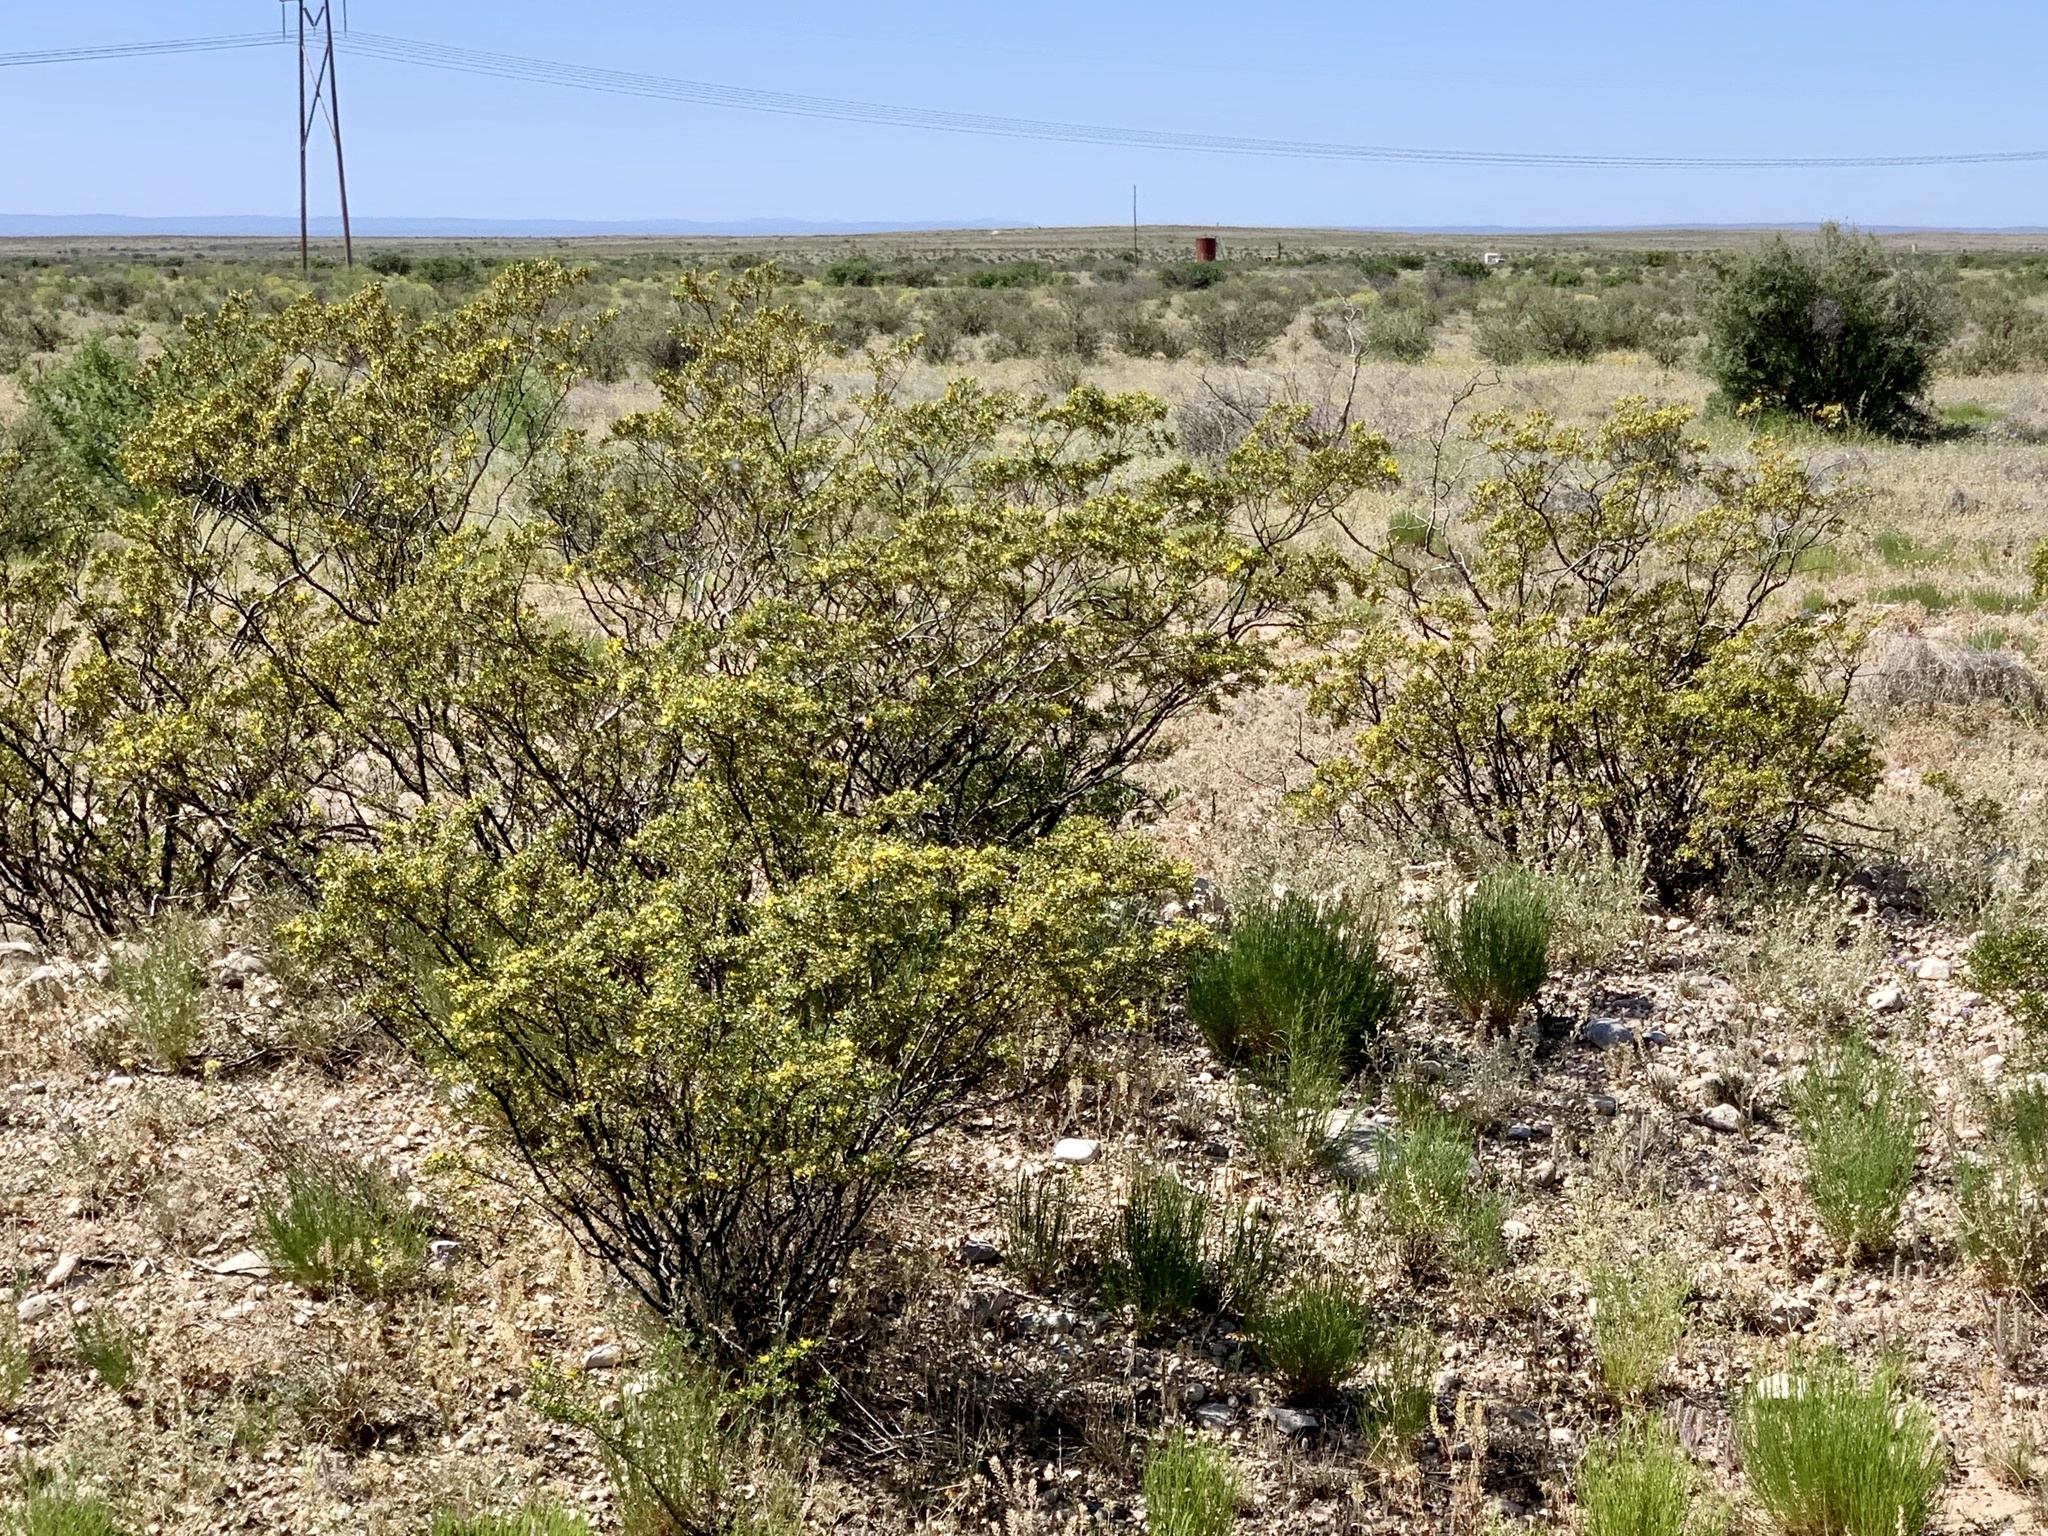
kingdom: Plantae
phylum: Tracheophyta
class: Magnoliopsida
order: Zygophyllales
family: Zygophyllaceae
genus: Larrea
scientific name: Larrea tridentata
